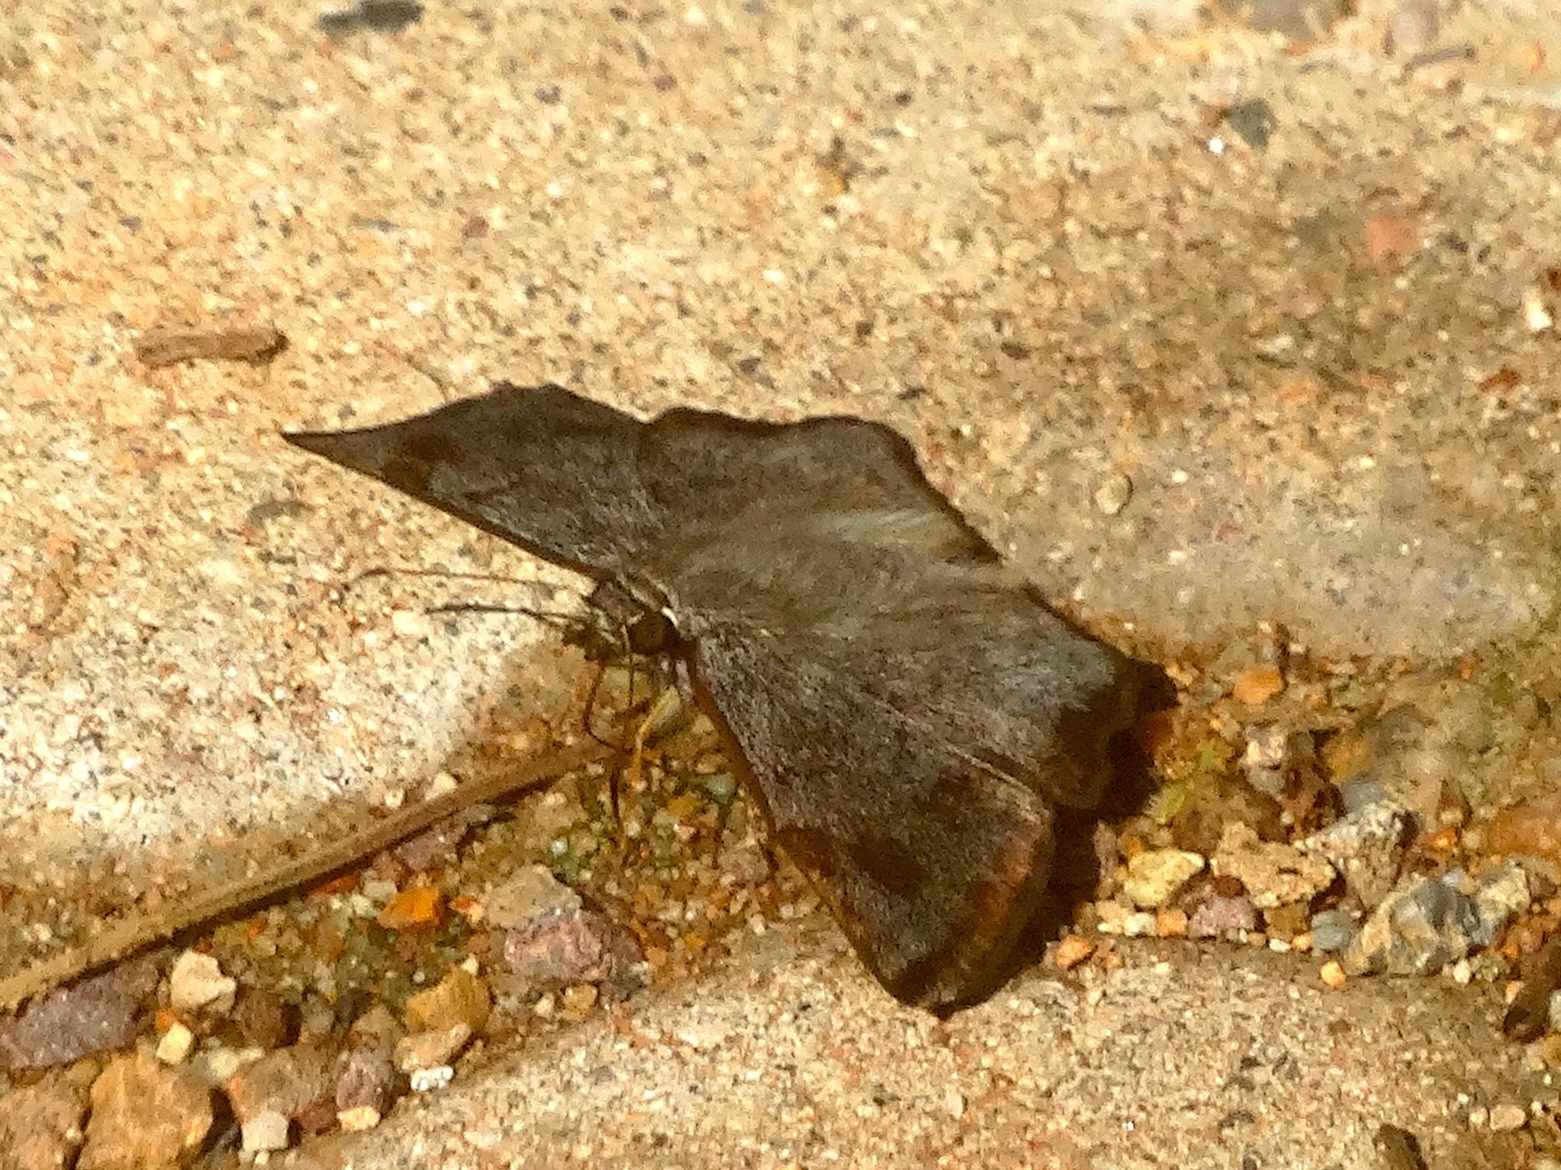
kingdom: Animalia
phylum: Arthropoda
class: Insecta
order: Lepidoptera
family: Hesperiidae
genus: Antigonus
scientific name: Antigonus erosus
